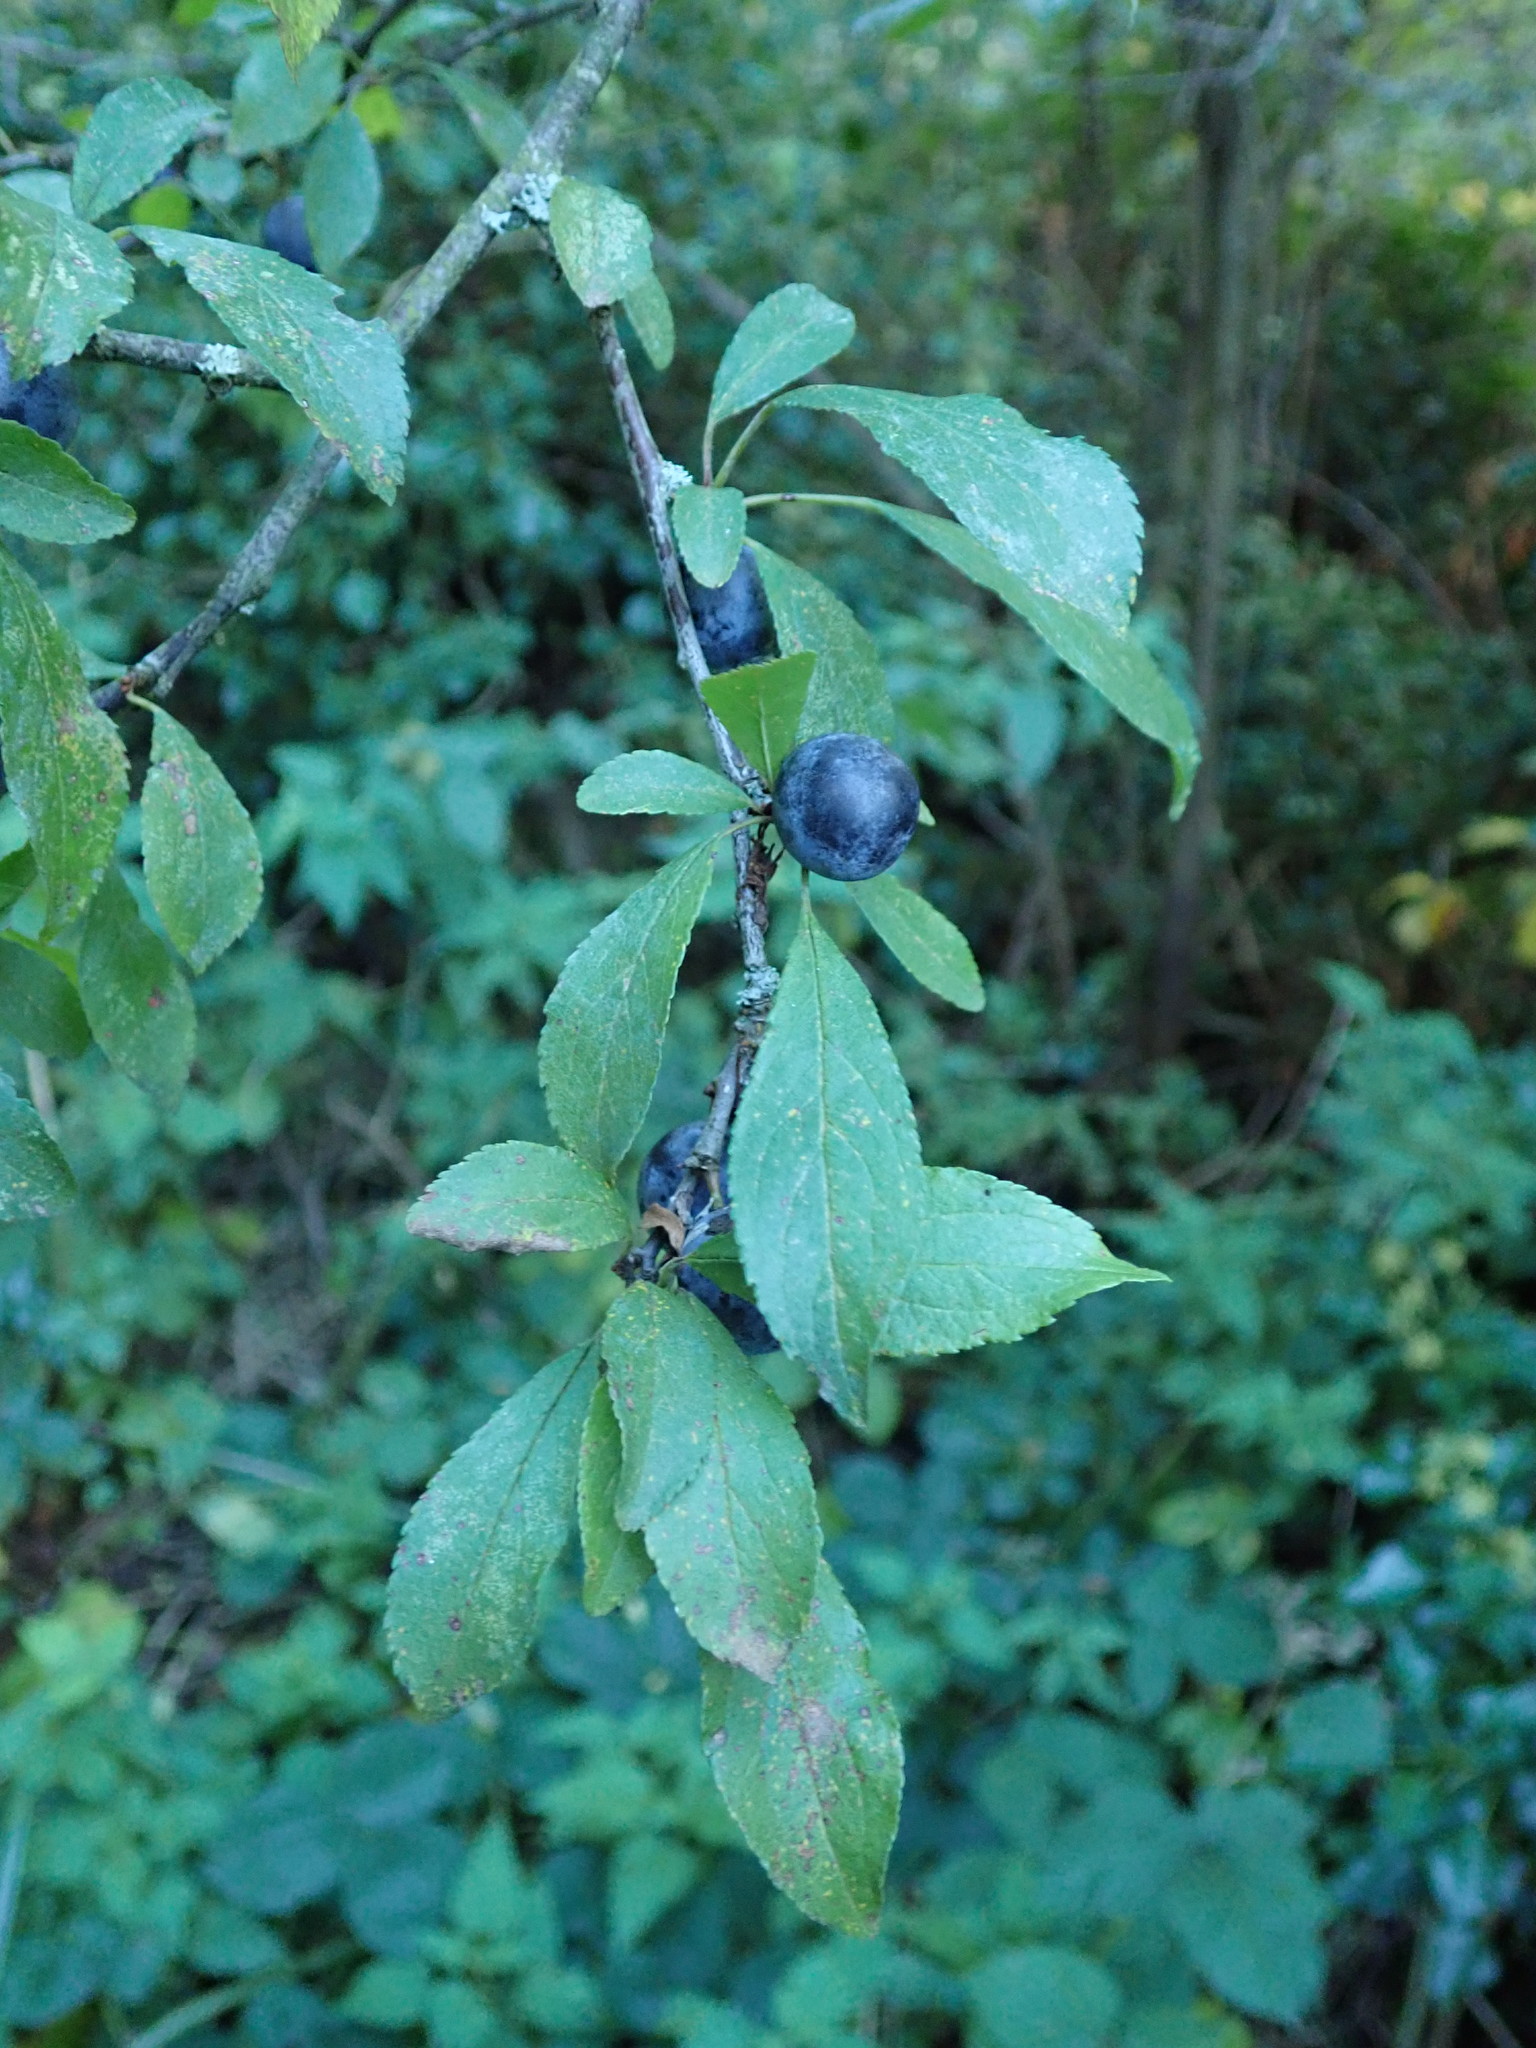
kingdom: Plantae
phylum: Tracheophyta
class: Magnoliopsida
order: Rosales
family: Rosaceae
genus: Prunus
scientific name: Prunus spinosa
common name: Blackthorn
